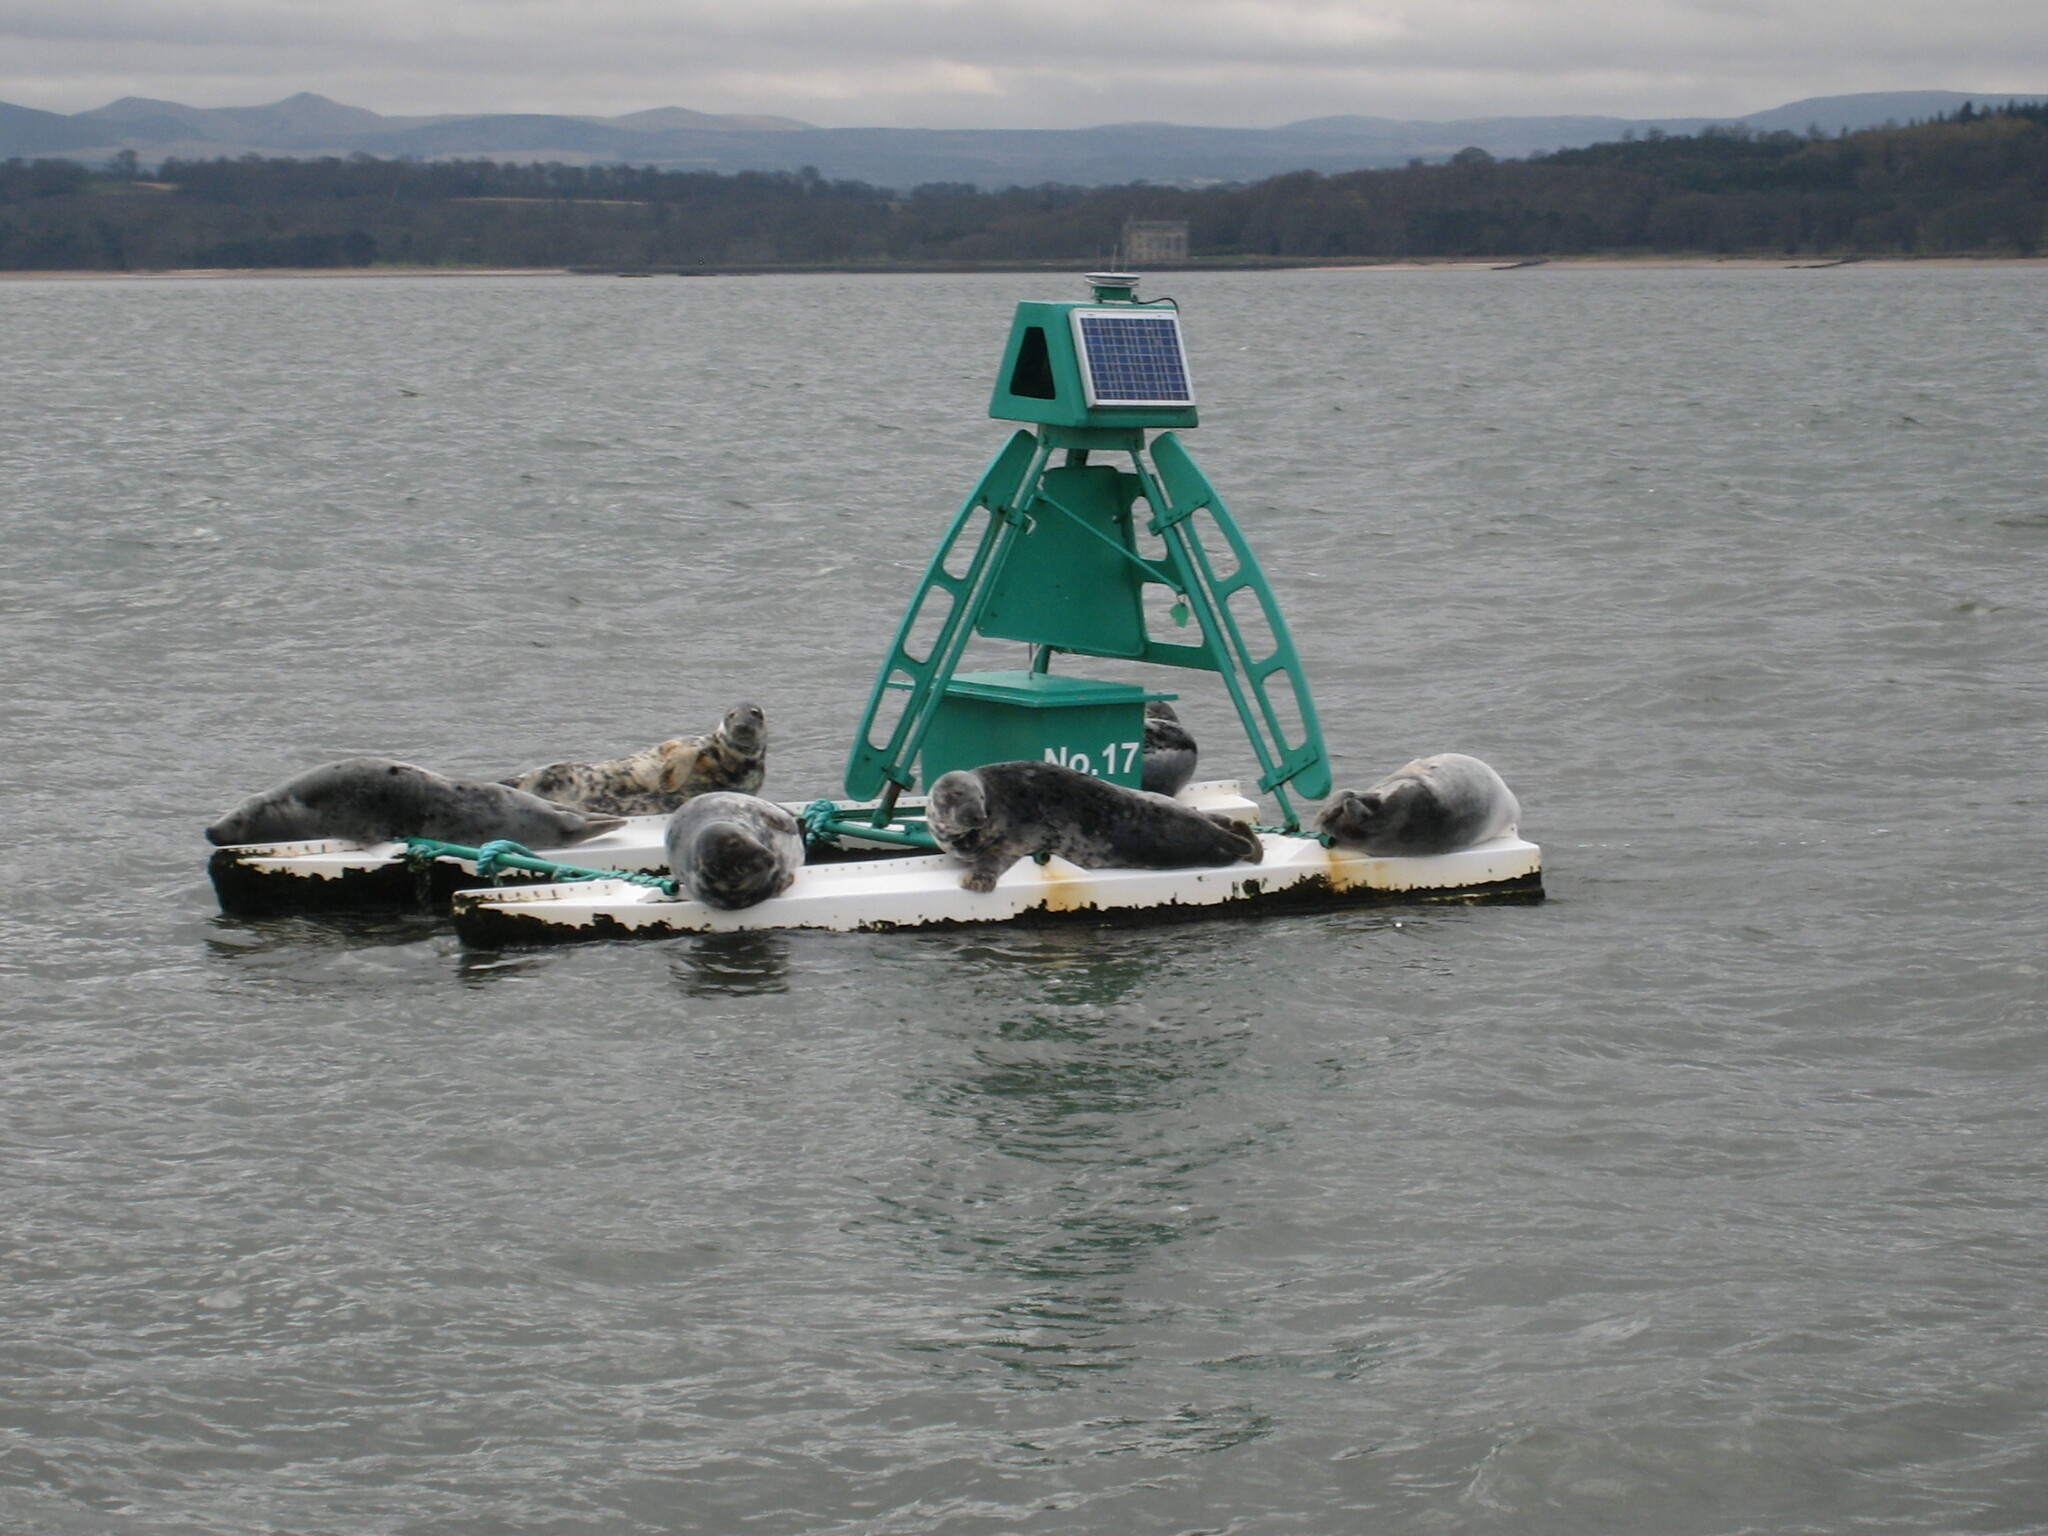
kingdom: Animalia
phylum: Chordata
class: Mammalia
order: Carnivora
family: Phocidae
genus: Halichoerus
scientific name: Halichoerus grypus
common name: Grey seal
